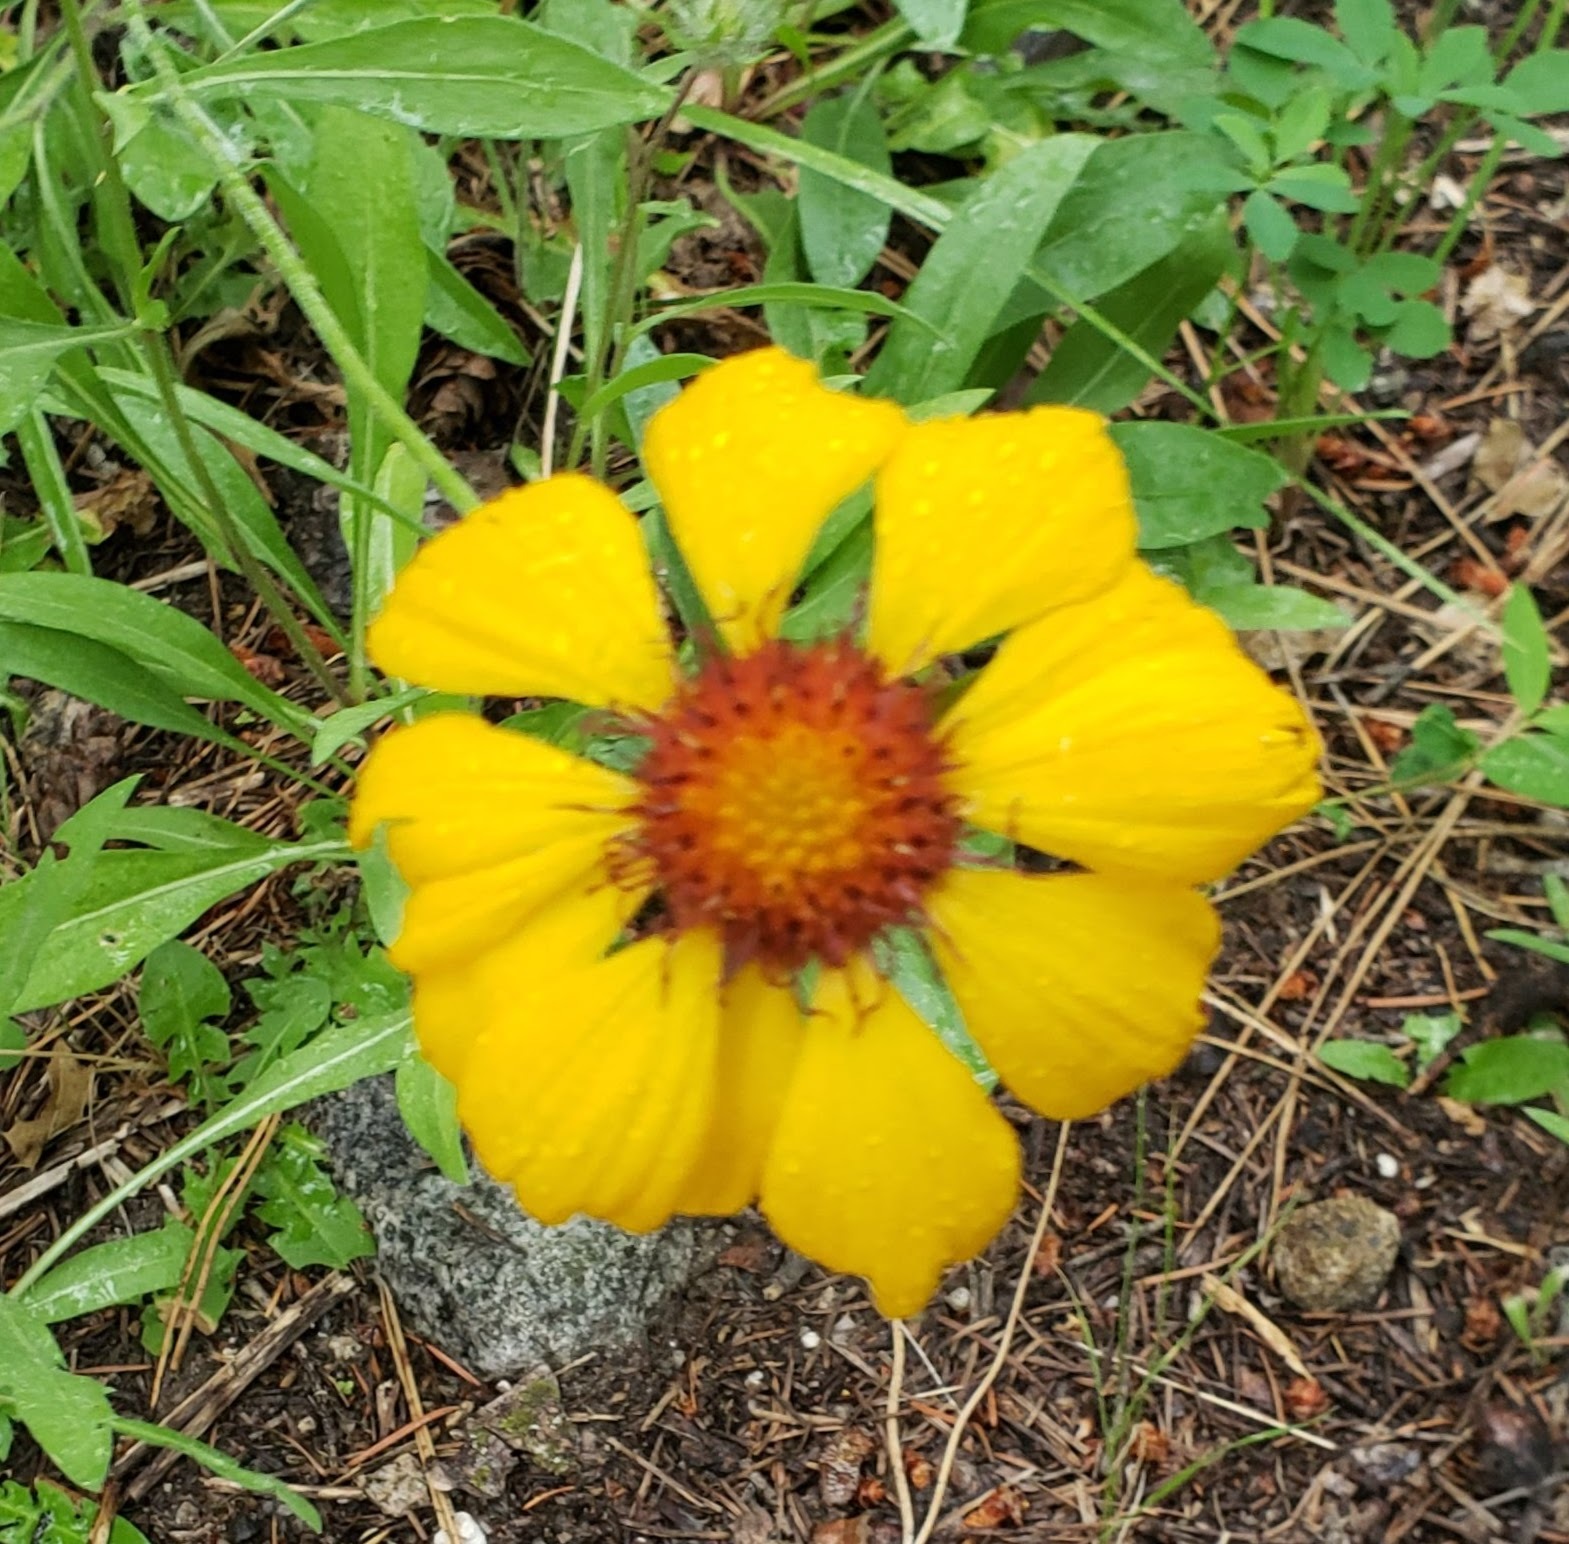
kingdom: Plantae
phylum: Tracheophyta
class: Magnoliopsida
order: Asterales
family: Asteraceae
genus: Gaillardia
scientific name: Gaillardia aristata
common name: Blanket-flower
